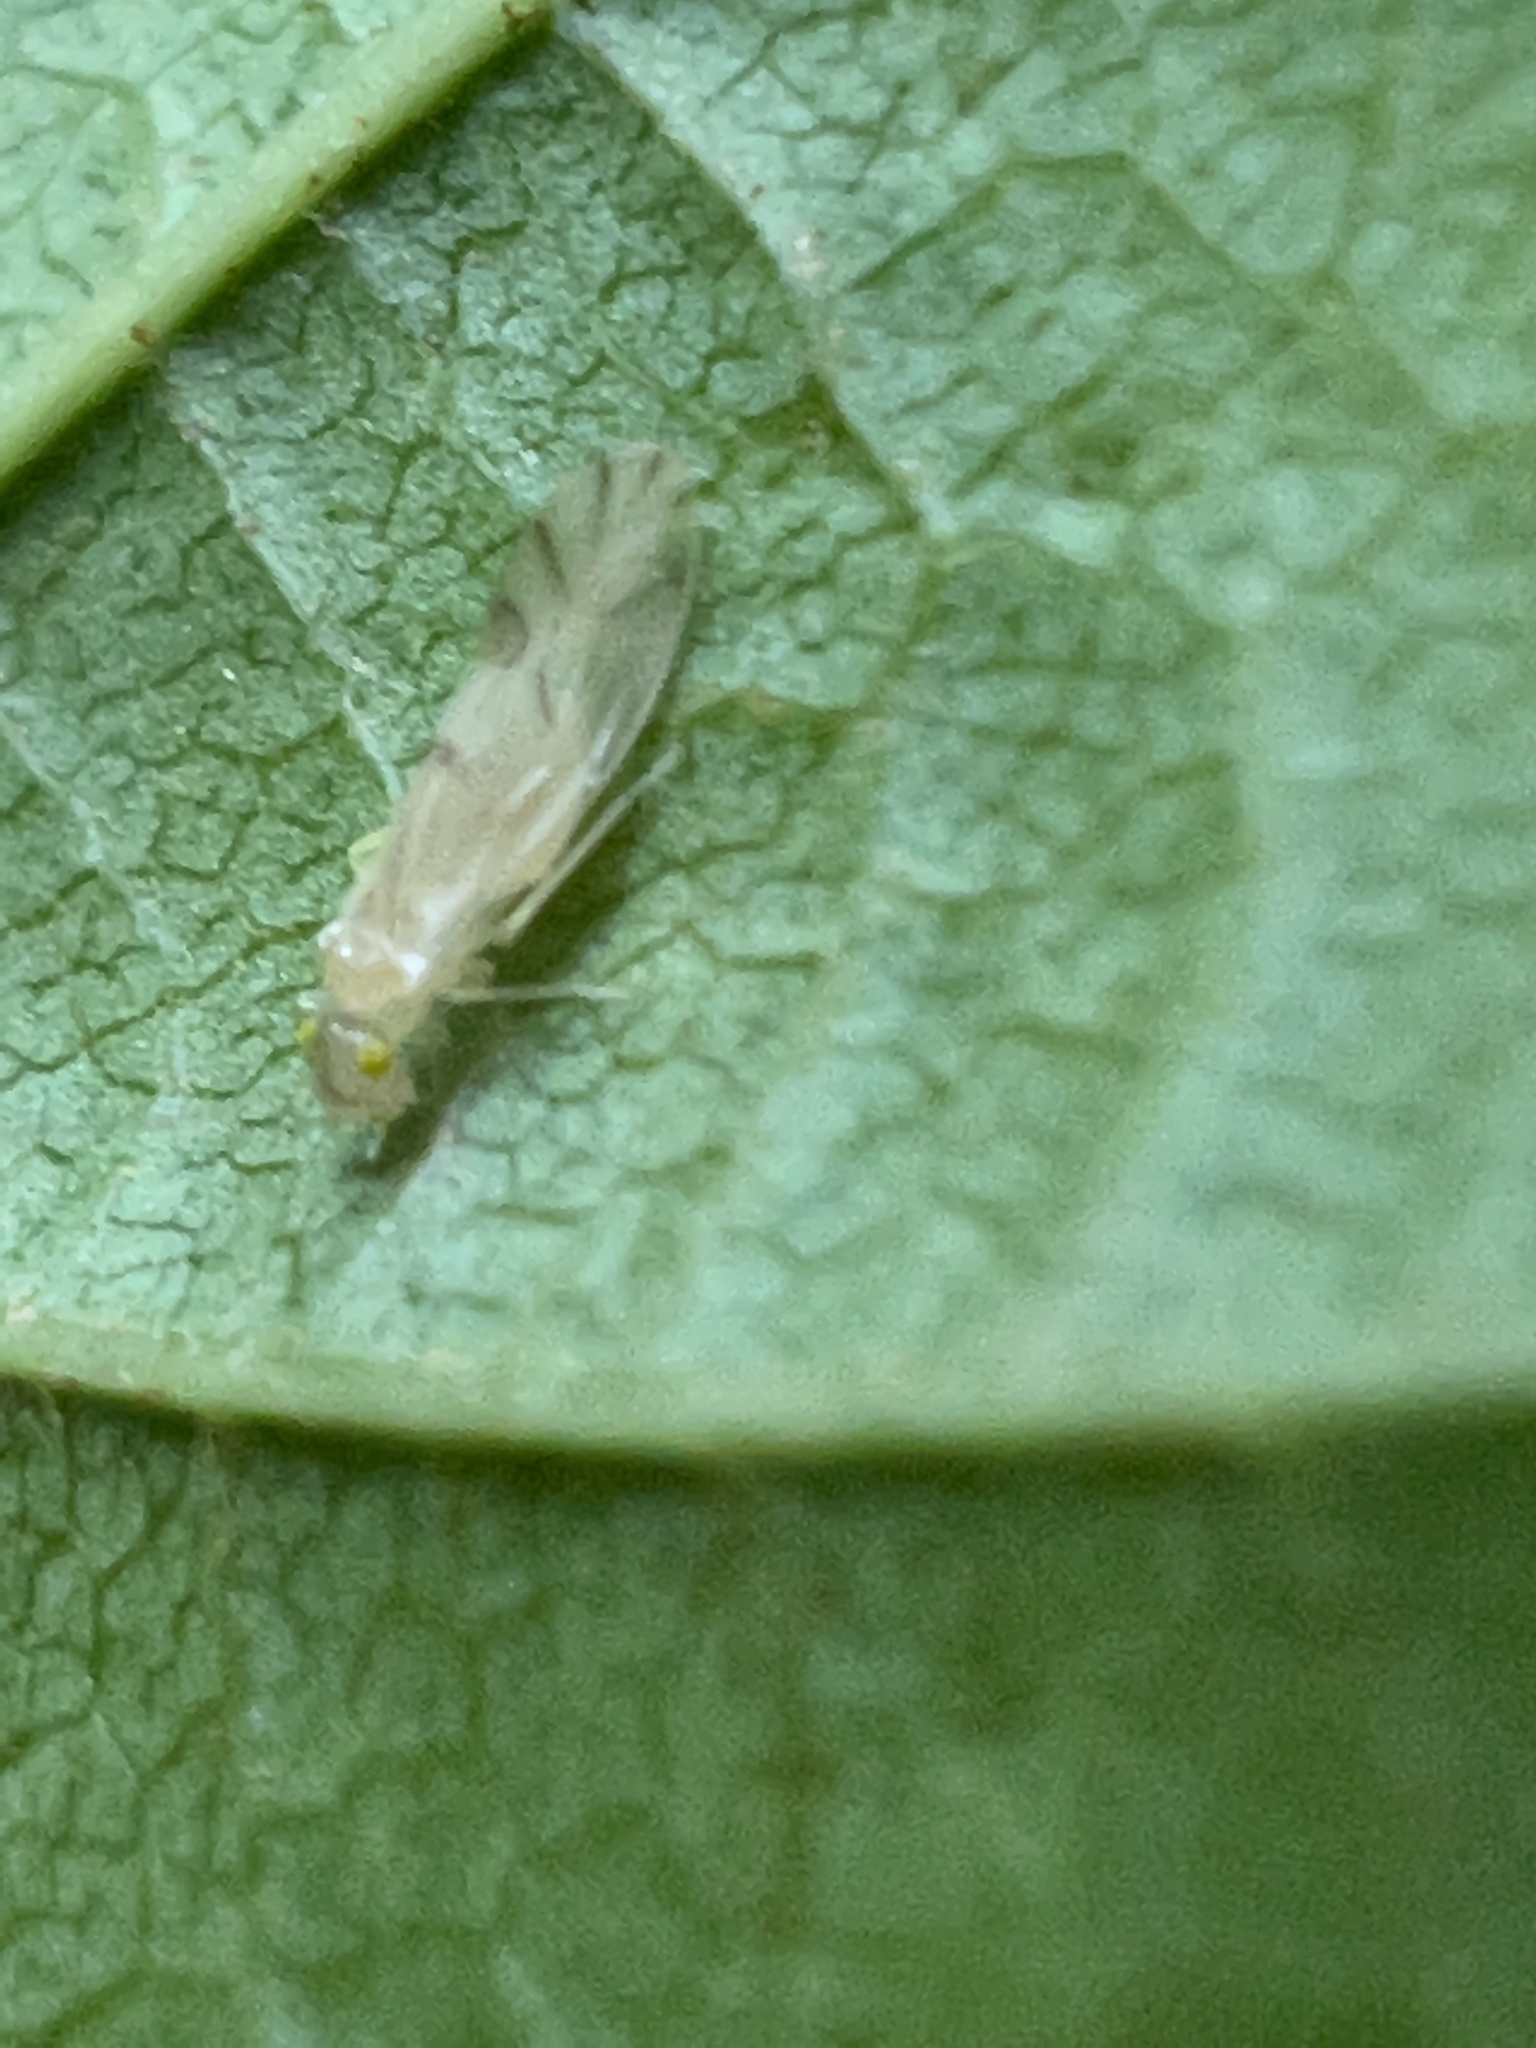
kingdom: Animalia
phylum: Arthropoda
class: Insecta
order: Psocodea
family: Paracaeciliidae
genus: Xanthocaecilius
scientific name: Xanthocaecilius sommermanae
